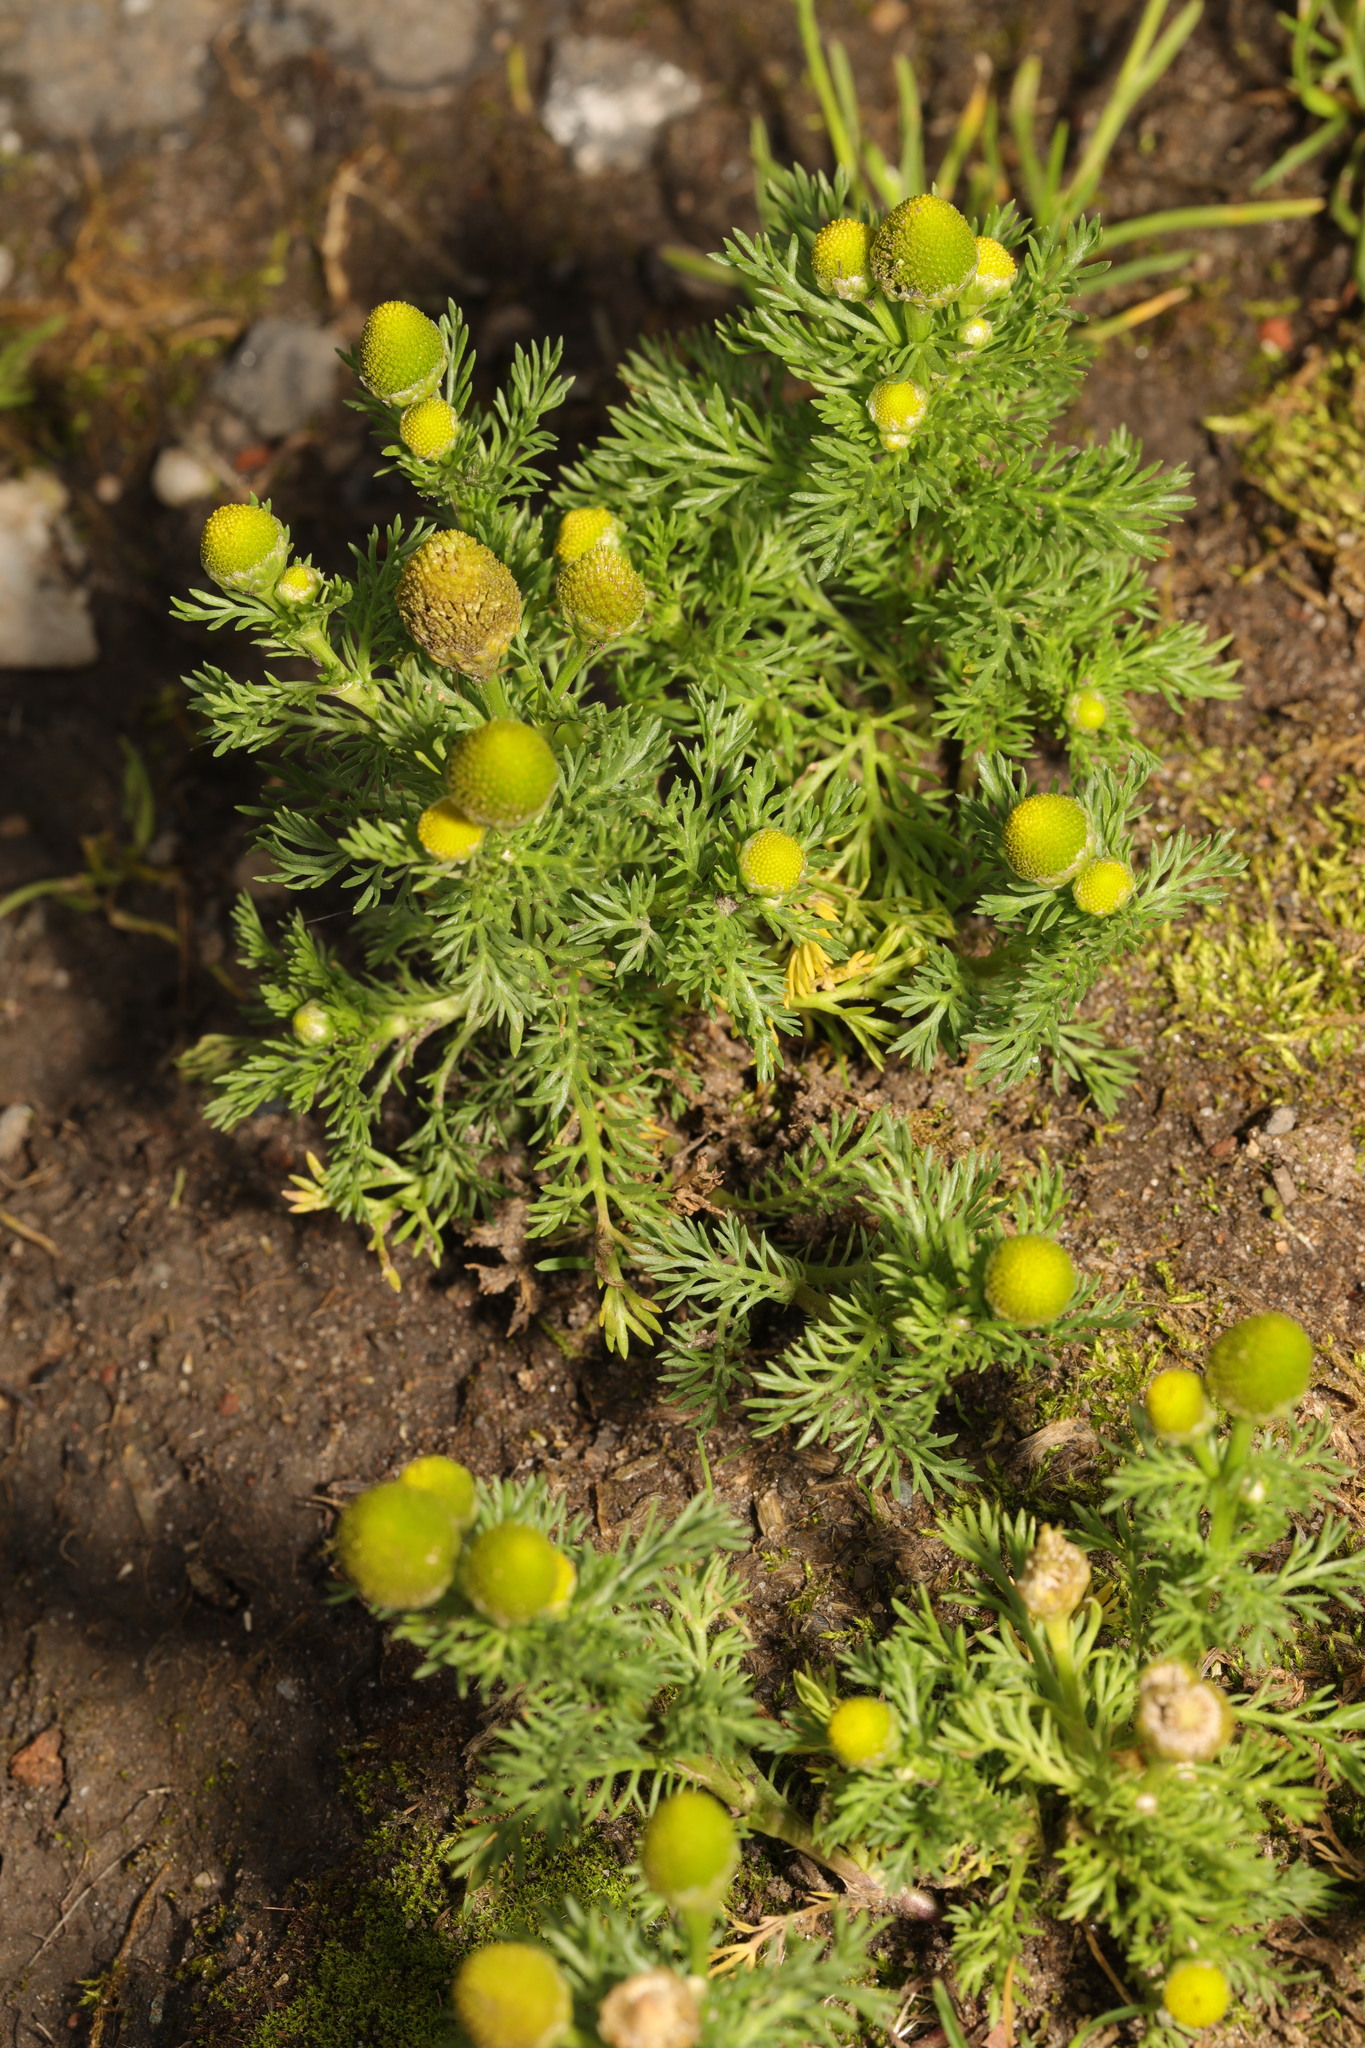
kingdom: Plantae
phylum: Tracheophyta
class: Magnoliopsida
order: Asterales
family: Asteraceae
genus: Matricaria
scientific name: Matricaria discoidea
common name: Disc mayweed
